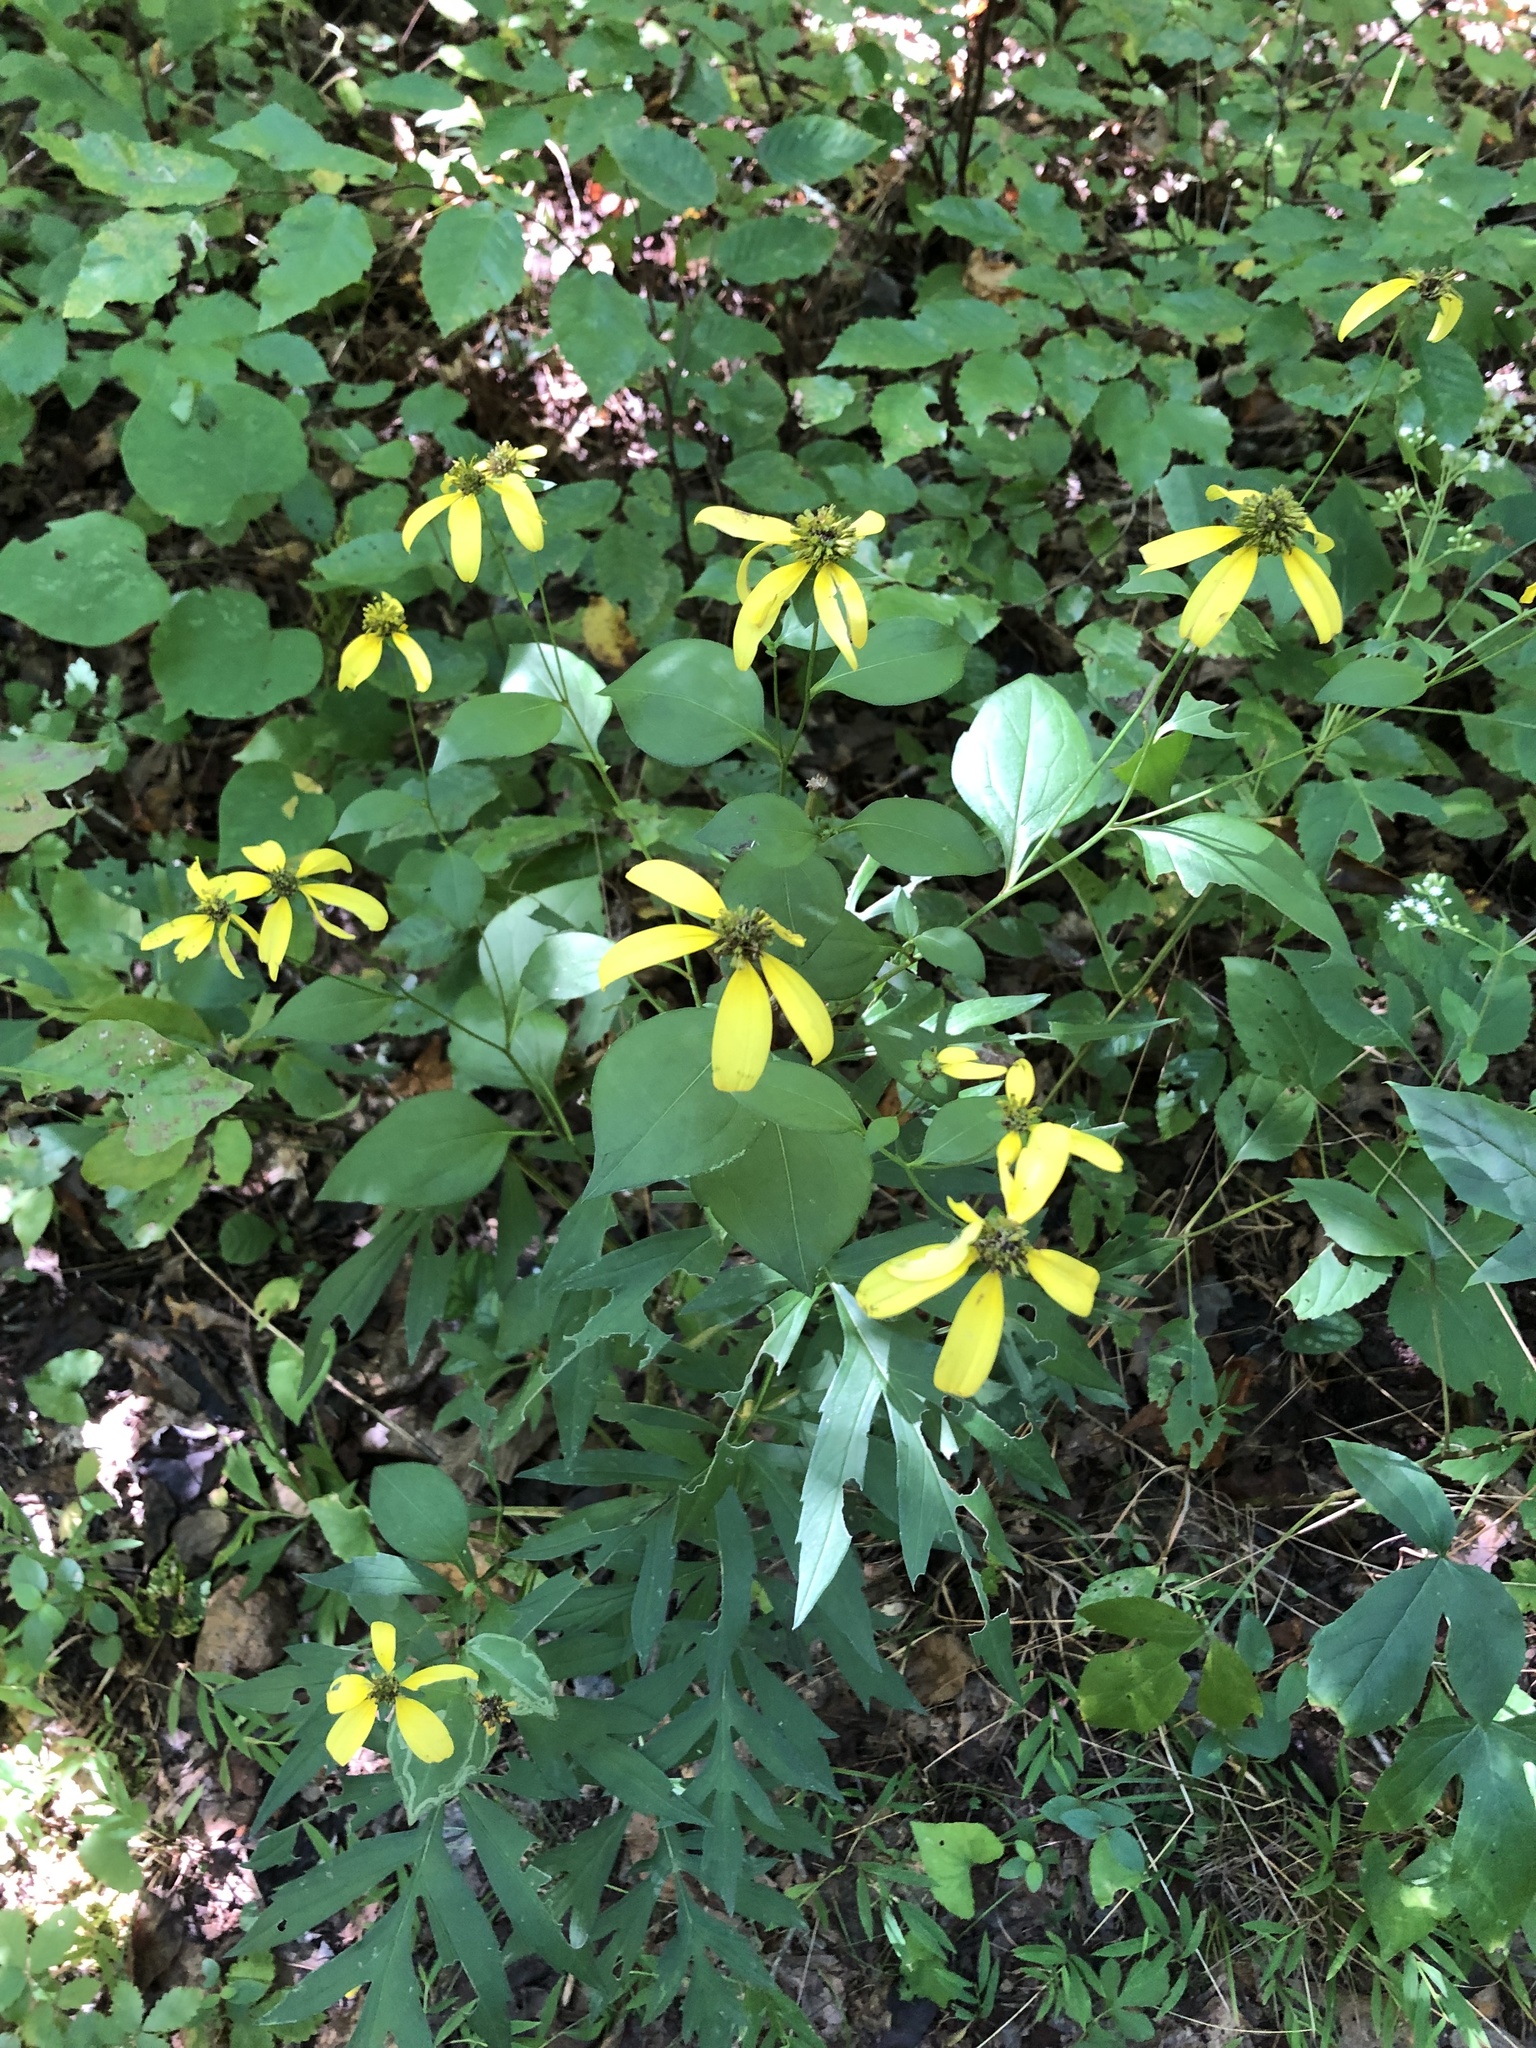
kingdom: Plantae
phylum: Tracheophyta
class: Magnoliopsida
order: Asterales
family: Asteraceae
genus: Rudbeckia
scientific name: Rudbeckia laciniata
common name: Coneflower
